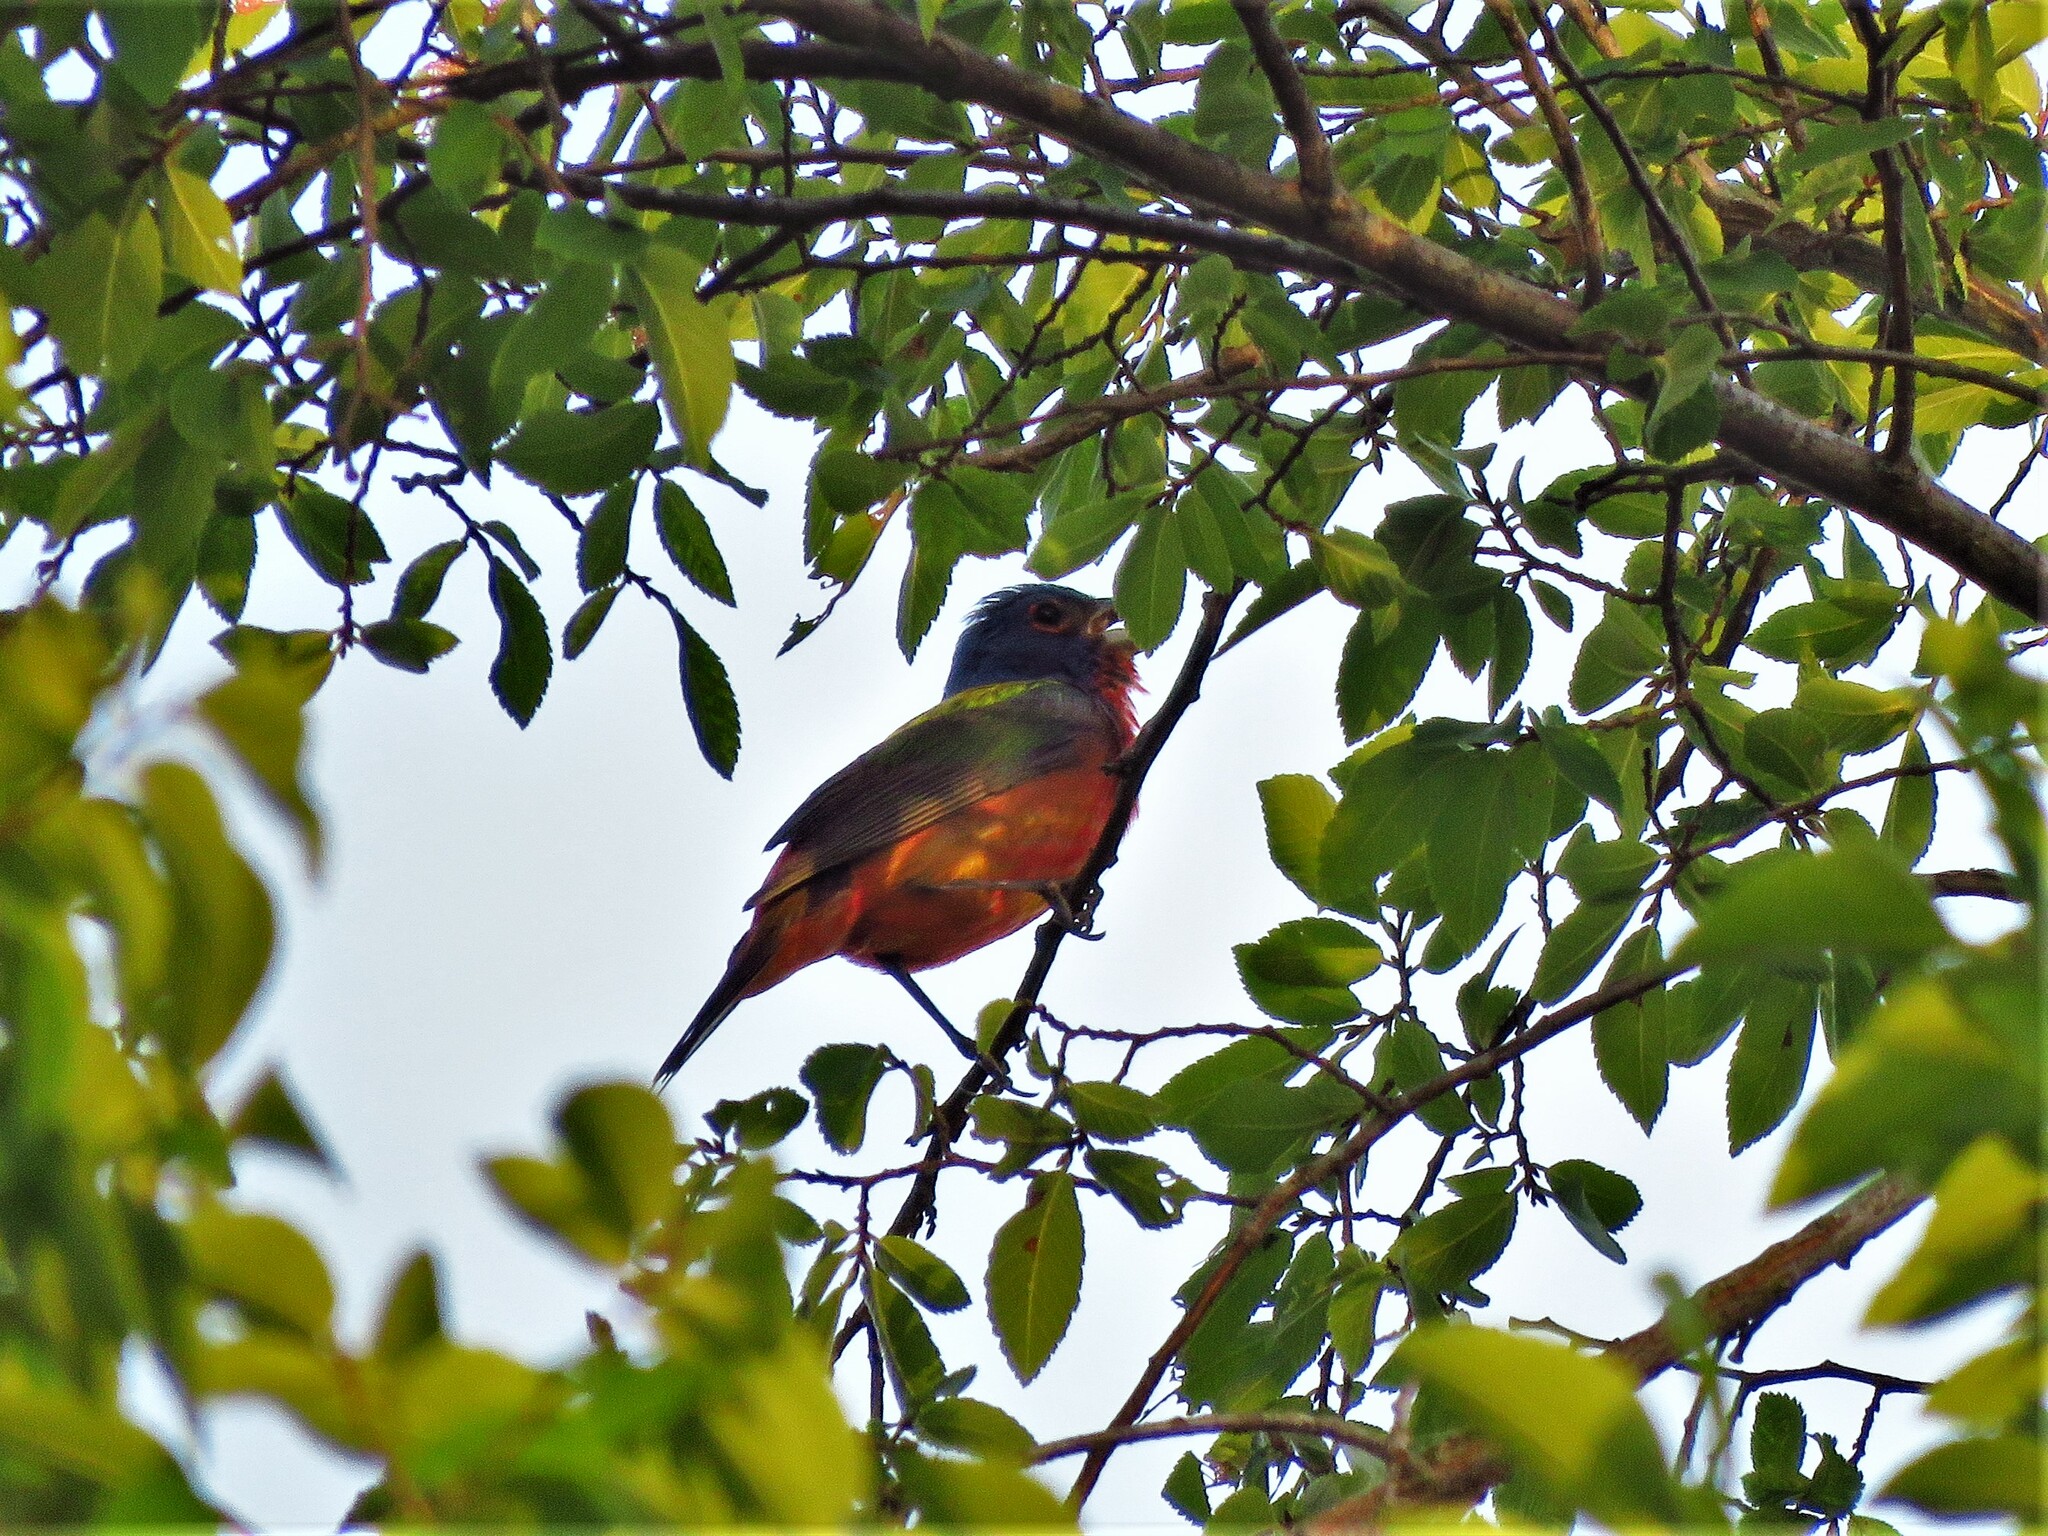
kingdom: Animalia
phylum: Chordata
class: Aves
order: Passeriformes
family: Cardinalidae
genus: Passerina
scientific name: Passerina ciris
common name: Painted bunting
